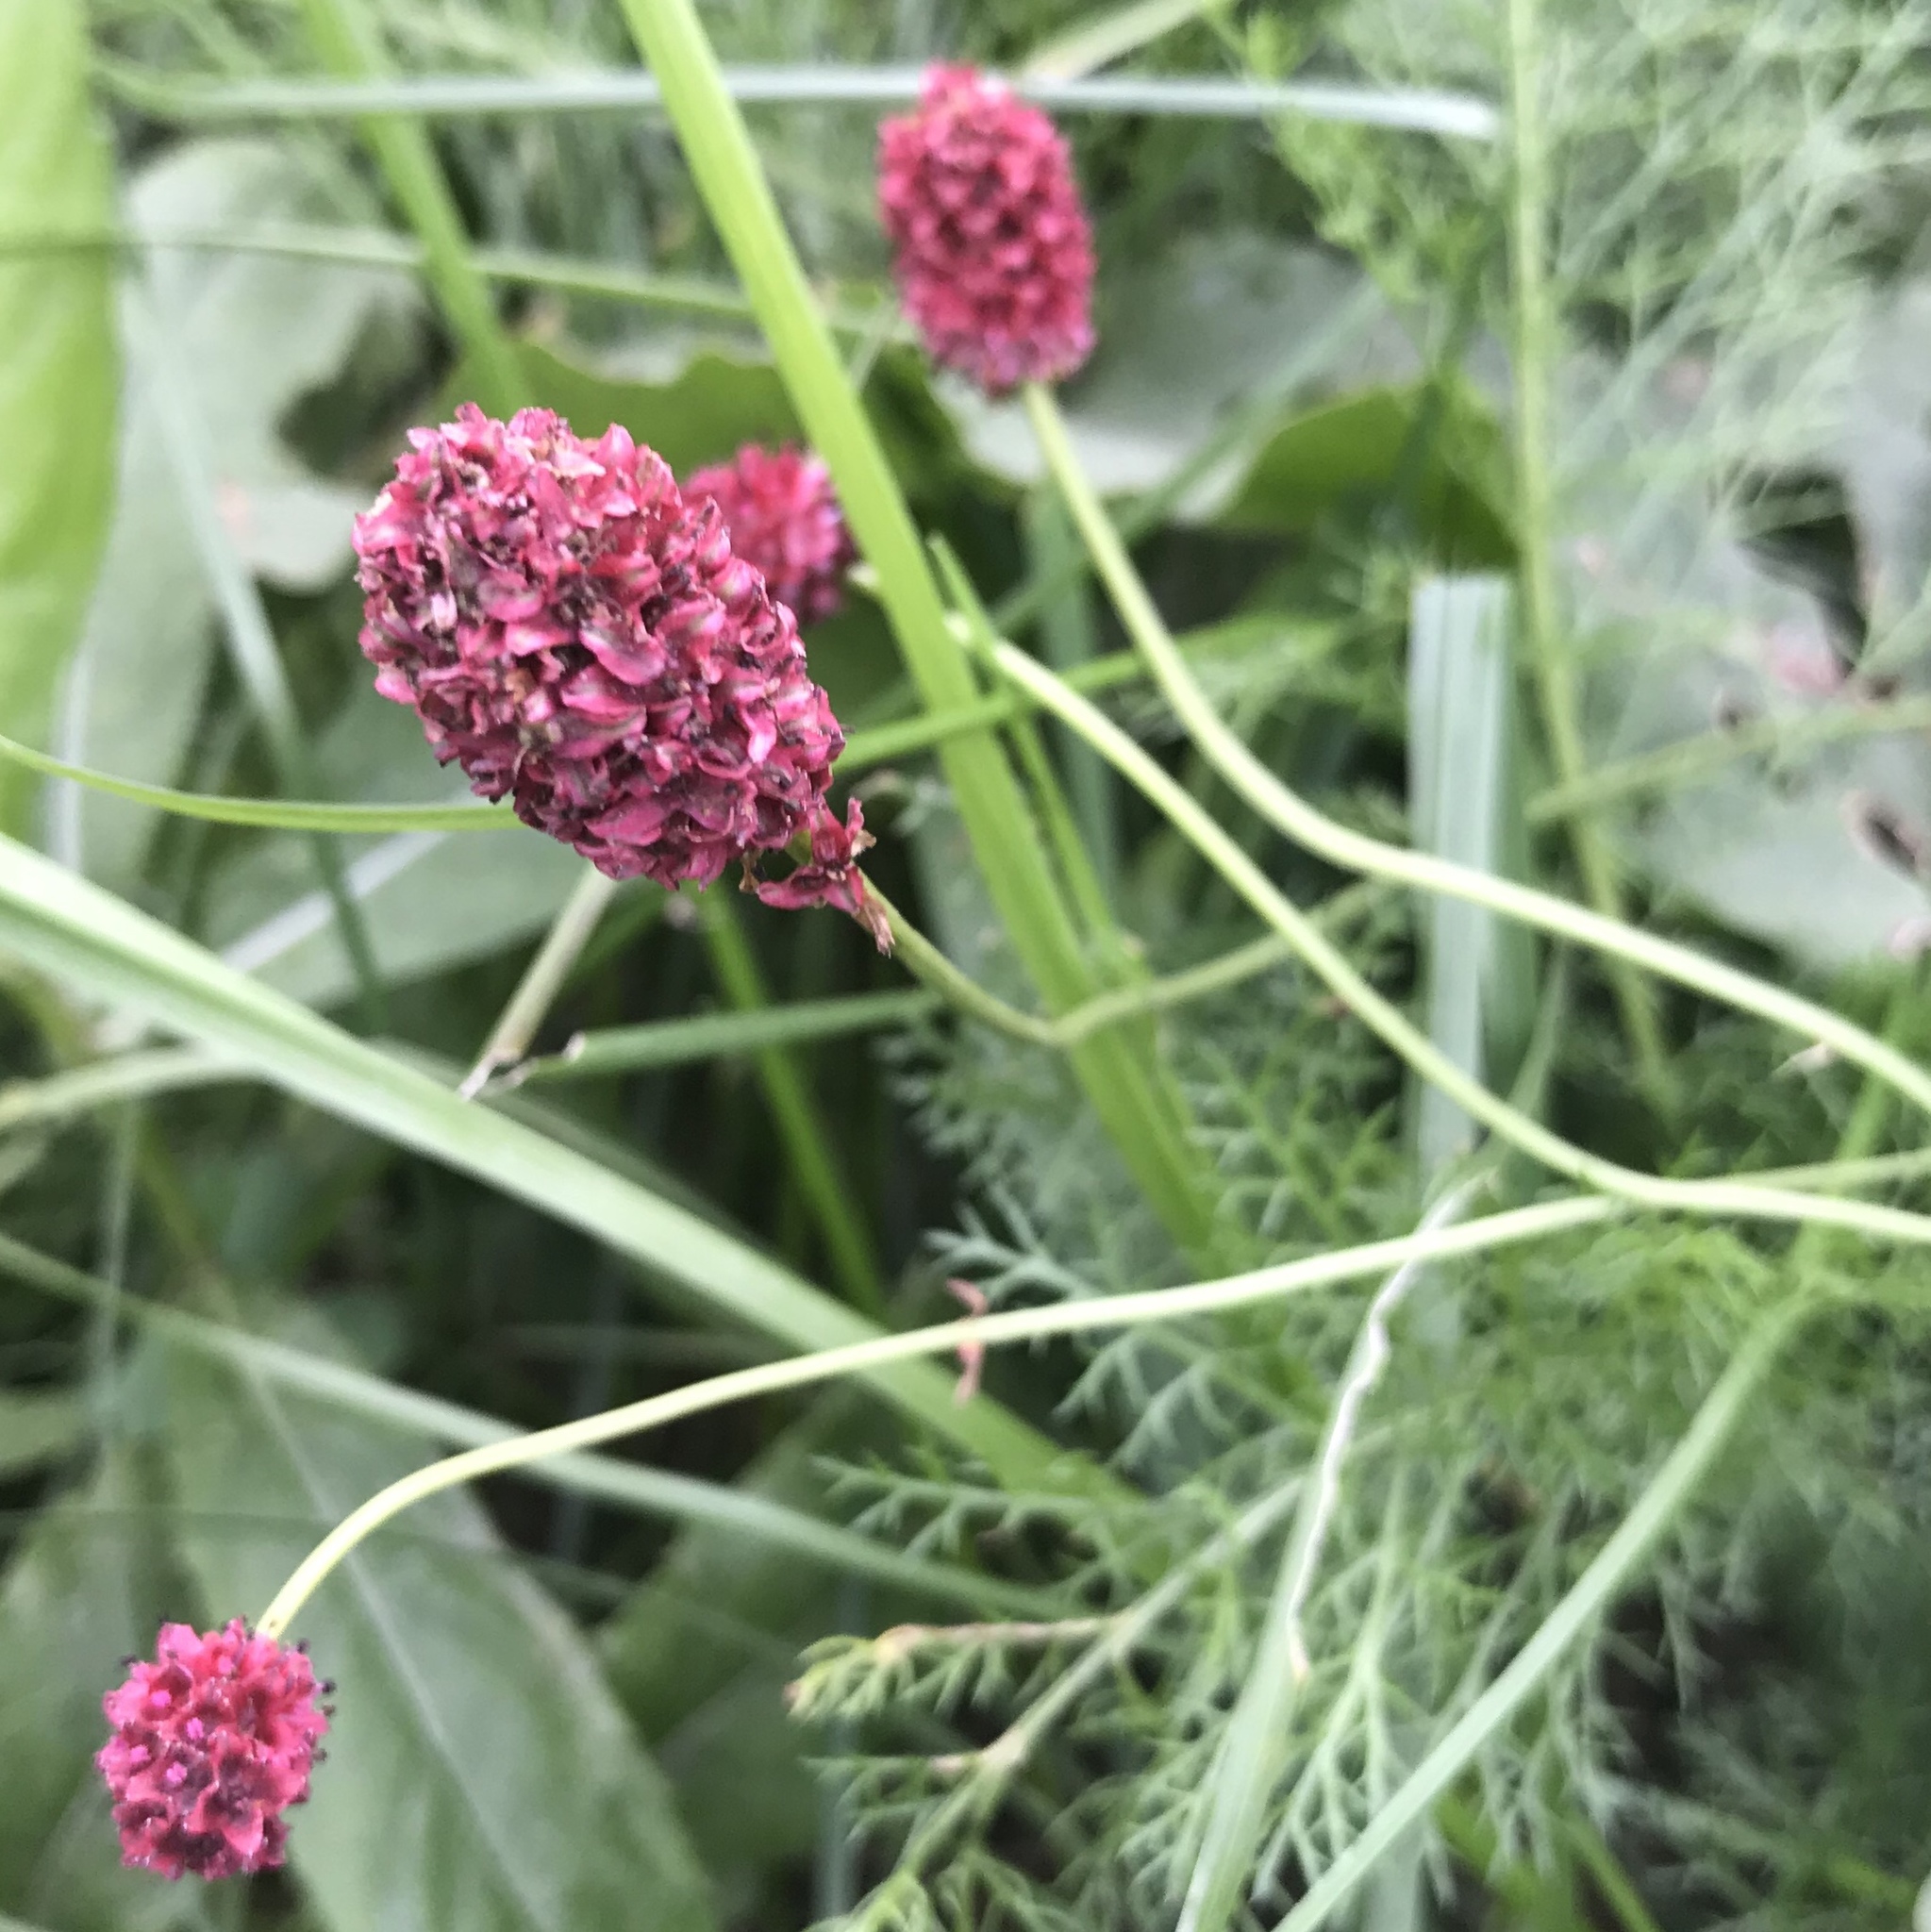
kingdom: Plantae
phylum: Tracheophyta
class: Magnoliopsida
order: Rosales
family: Rosaceae
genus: Sanguisorba
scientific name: Sanguisorba officinalis
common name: Great burnet
